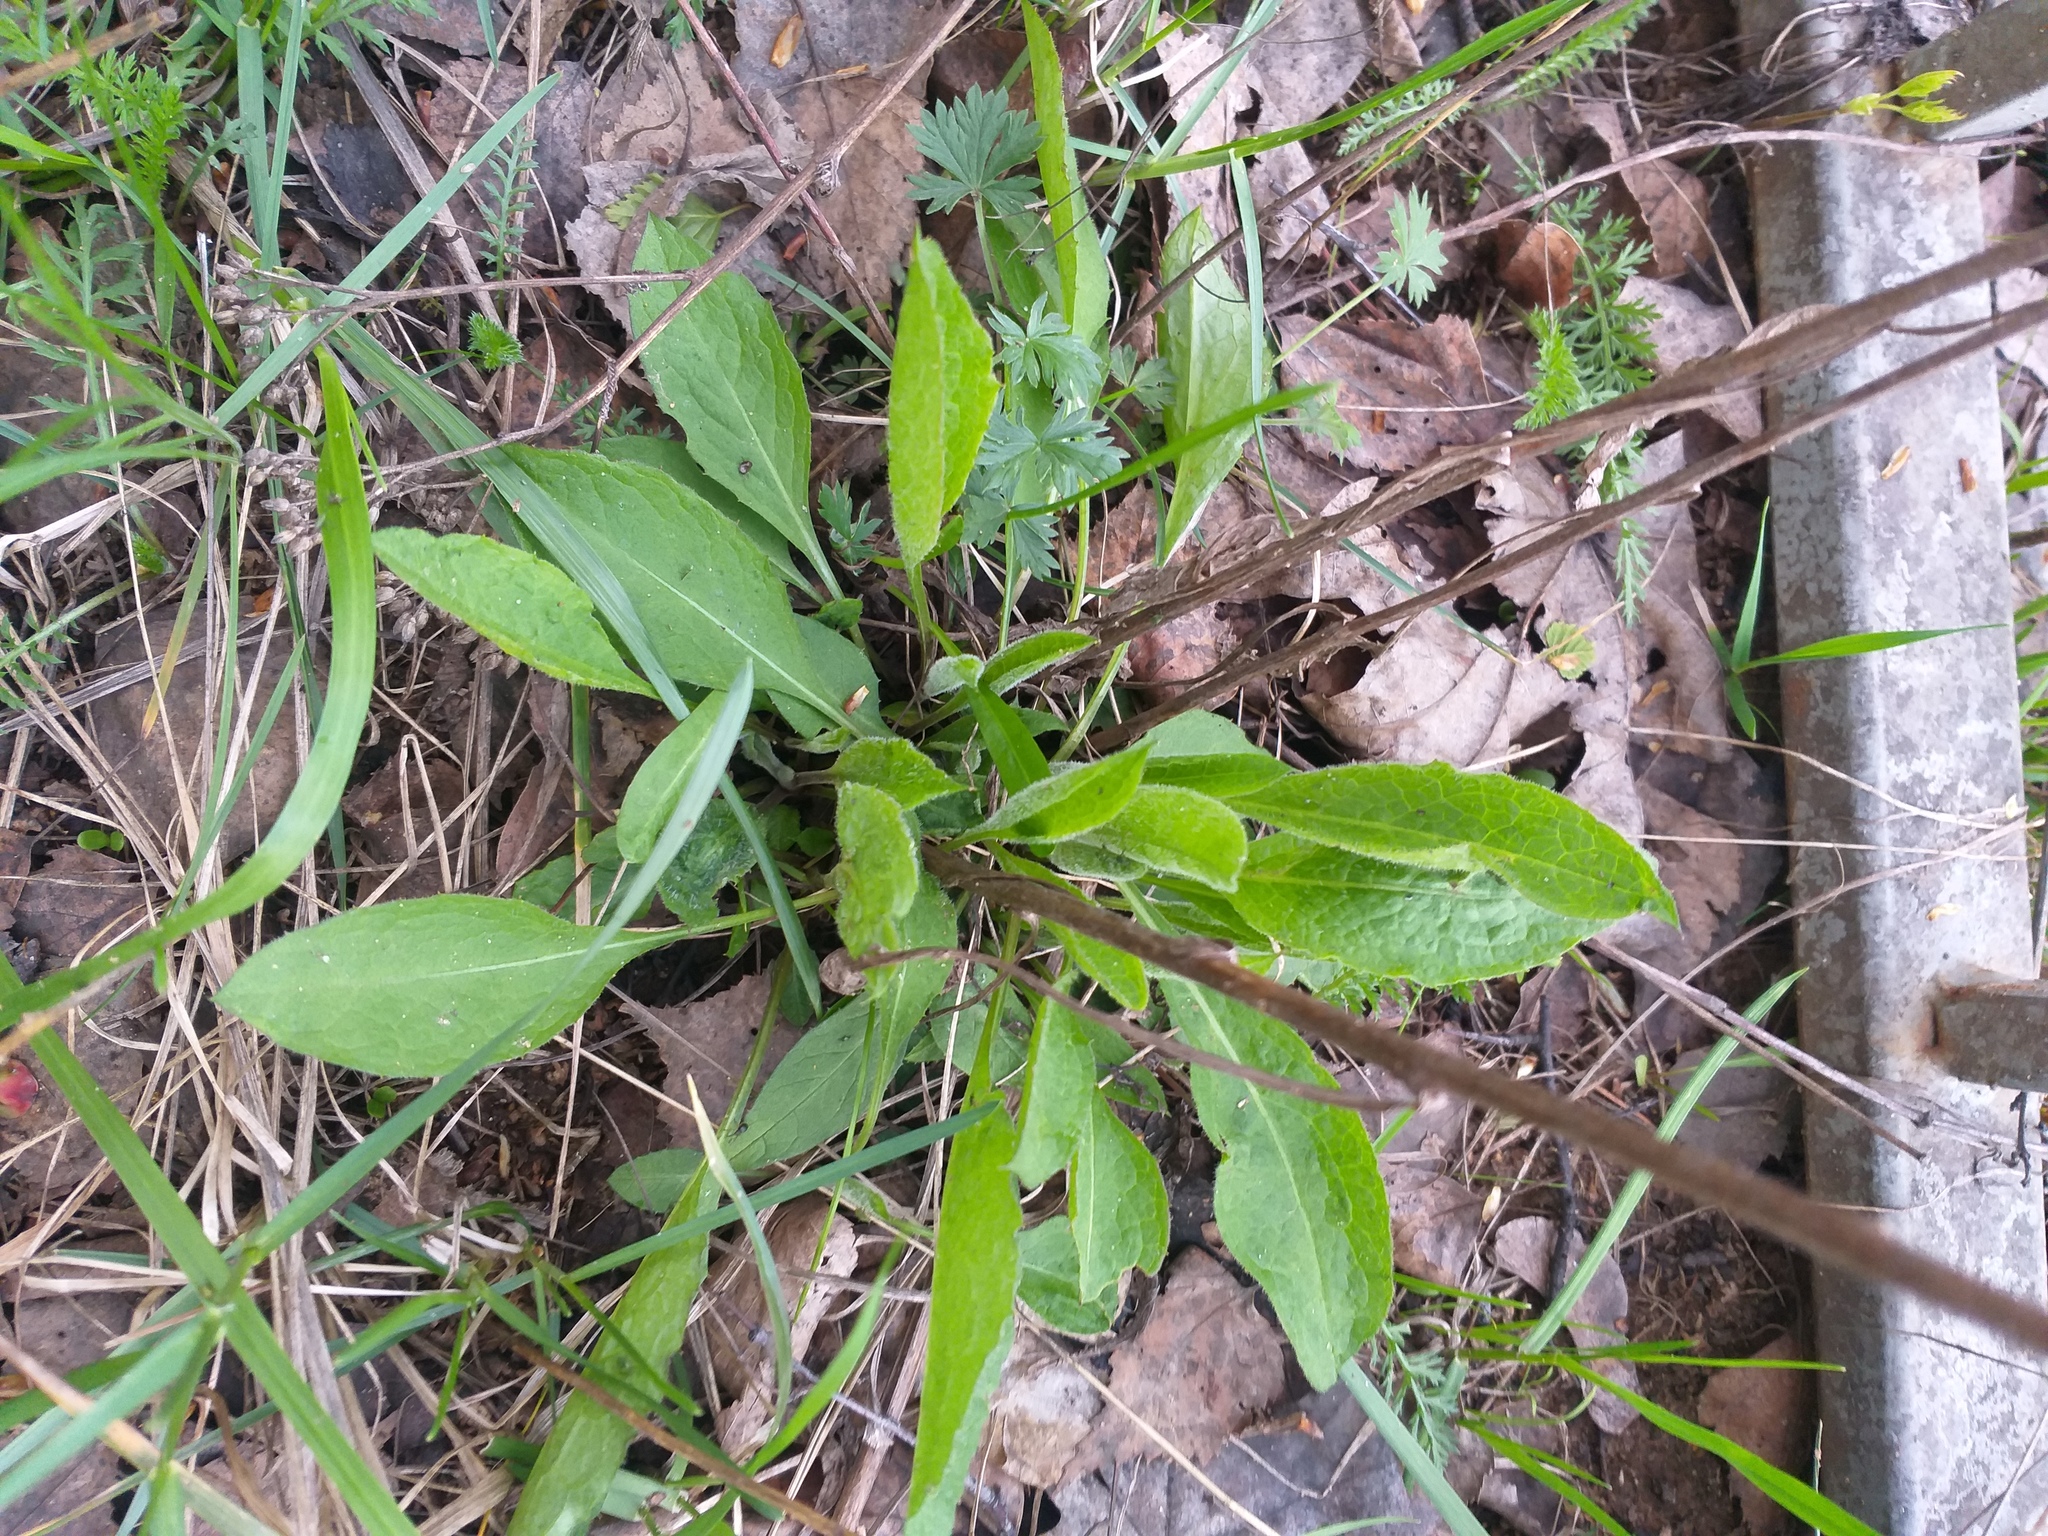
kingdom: Plantae
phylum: Tracheophyta
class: Magnoliopsida
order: Asterales
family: Asteraceae
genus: Centaurea
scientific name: Centaurea jacea
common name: Brown knapweed
